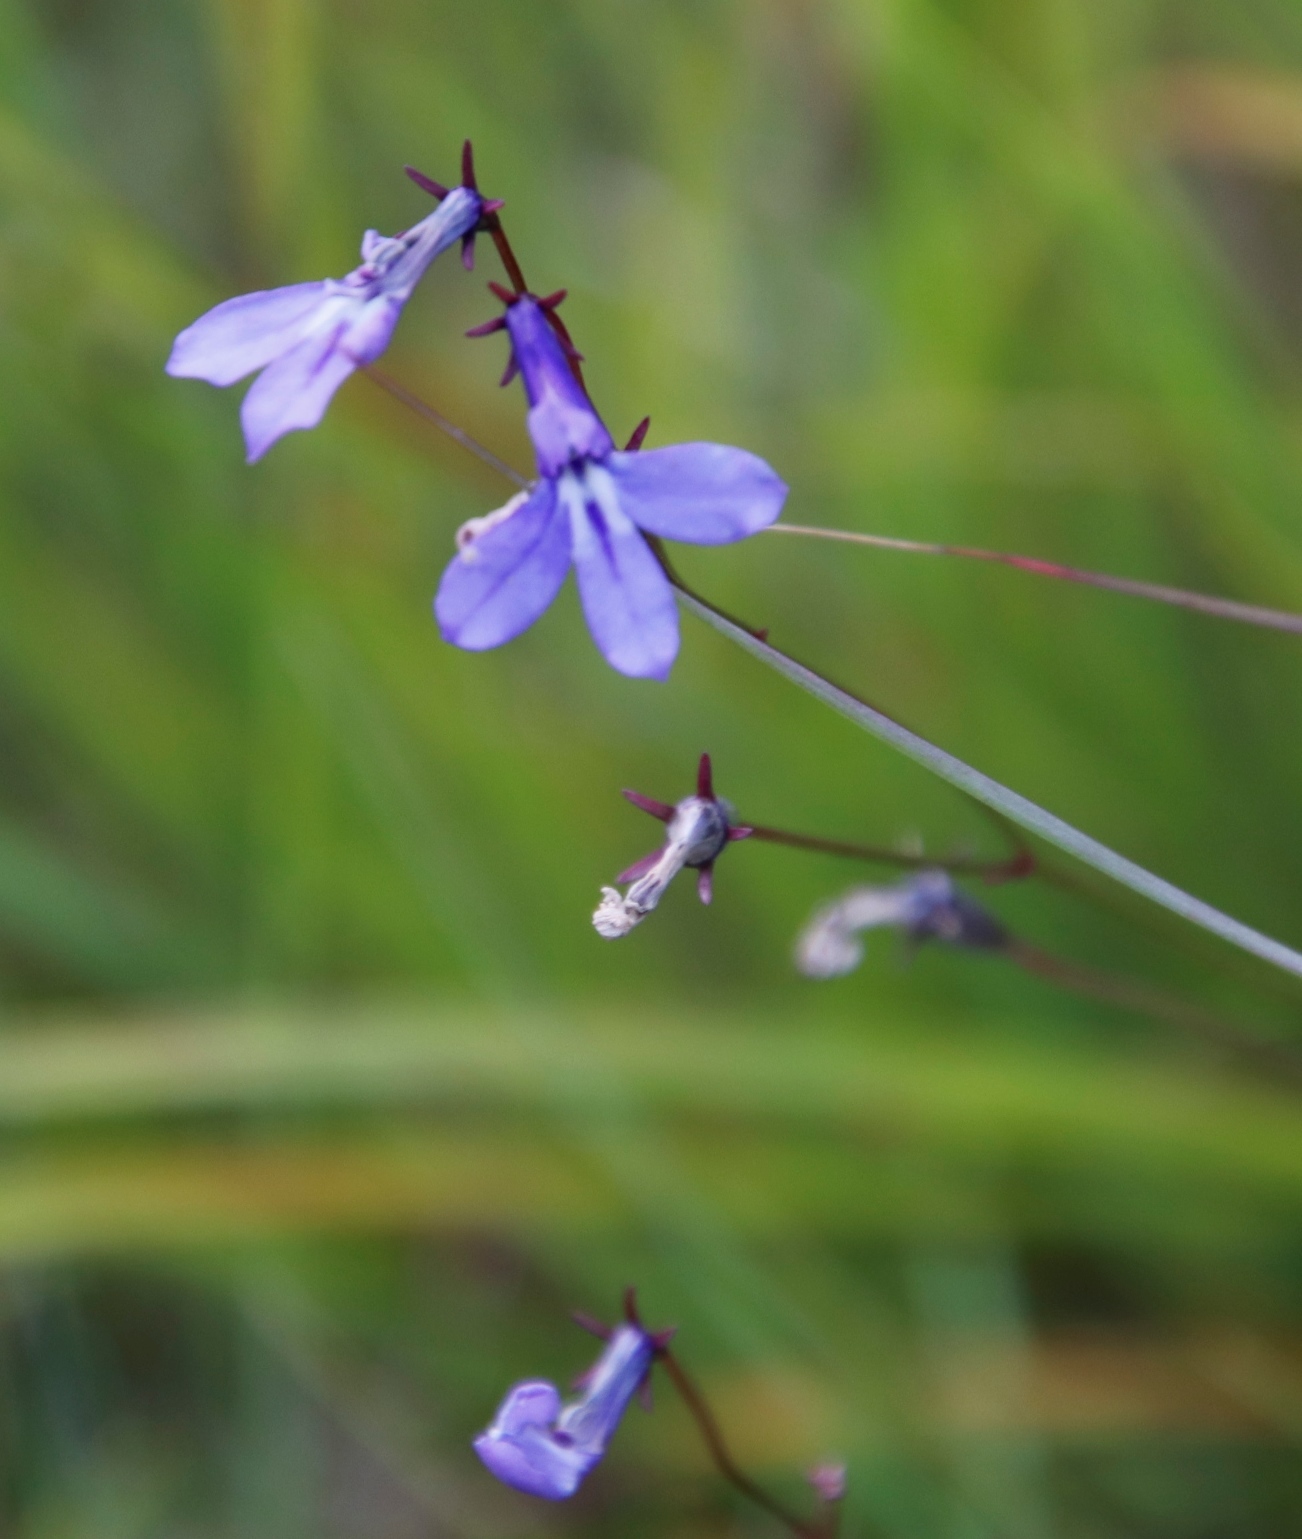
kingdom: Plantae
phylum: Tracheophyta
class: Magnoliopsida
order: Asterales
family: Campanulaceae
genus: Lobelia
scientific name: Lobelia laxa
